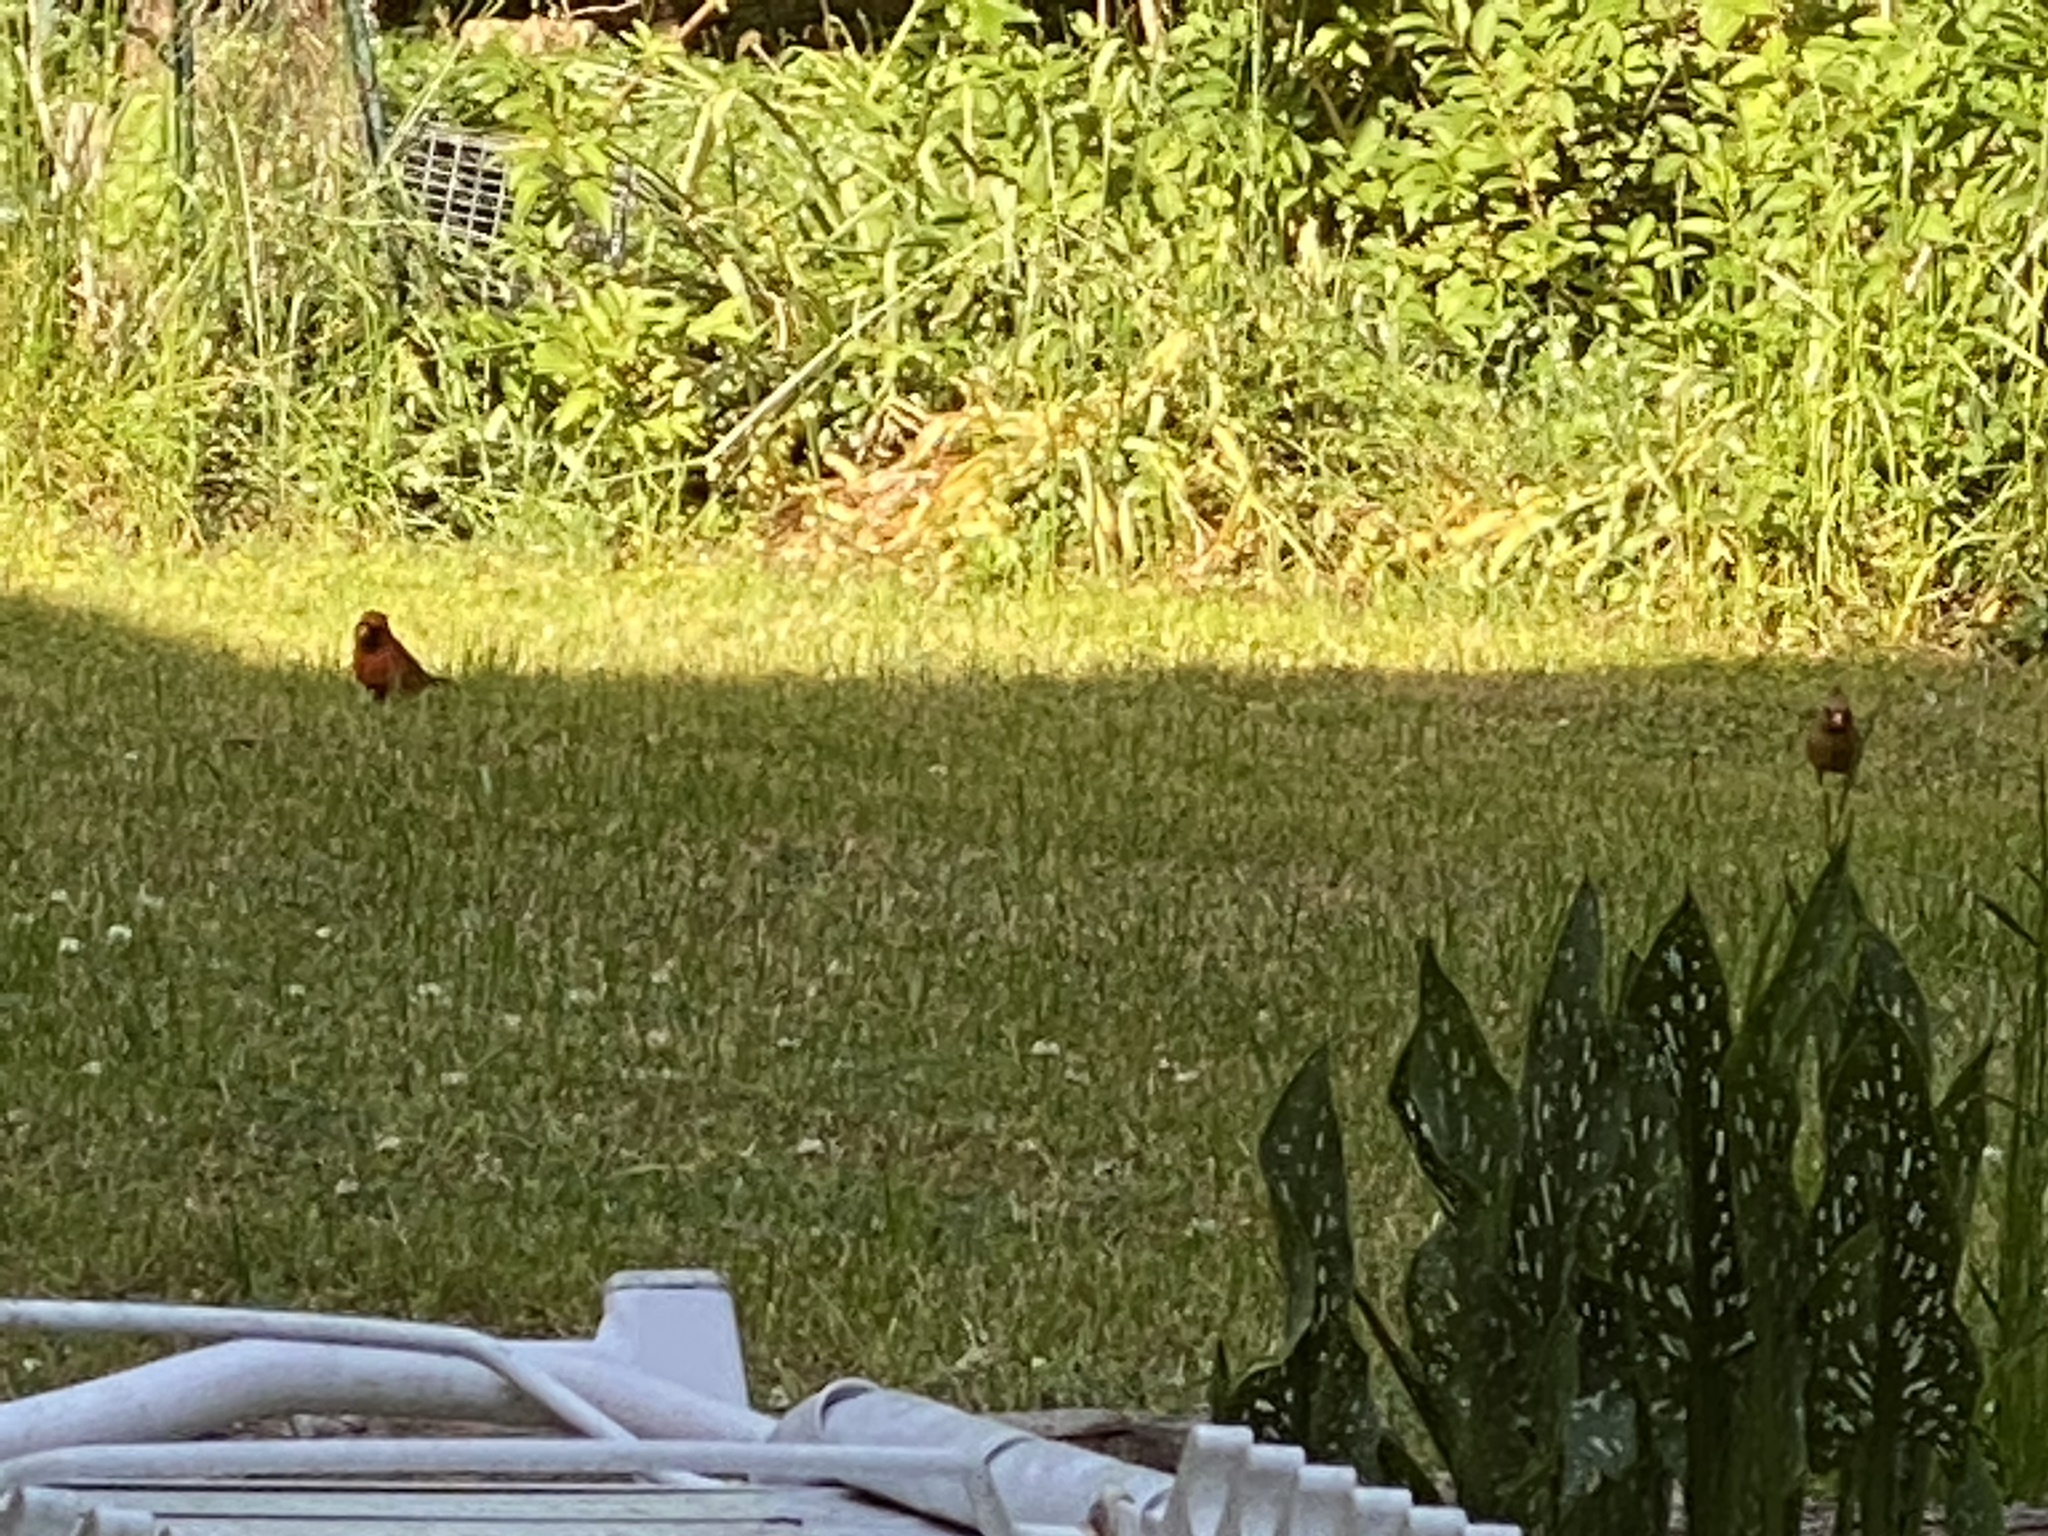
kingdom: Animalia
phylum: Chordata
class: Aves
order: Passeriformes
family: Cardinalidae
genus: Cardinalis
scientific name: Cardinalis cardinalis
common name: Northern cardinal
